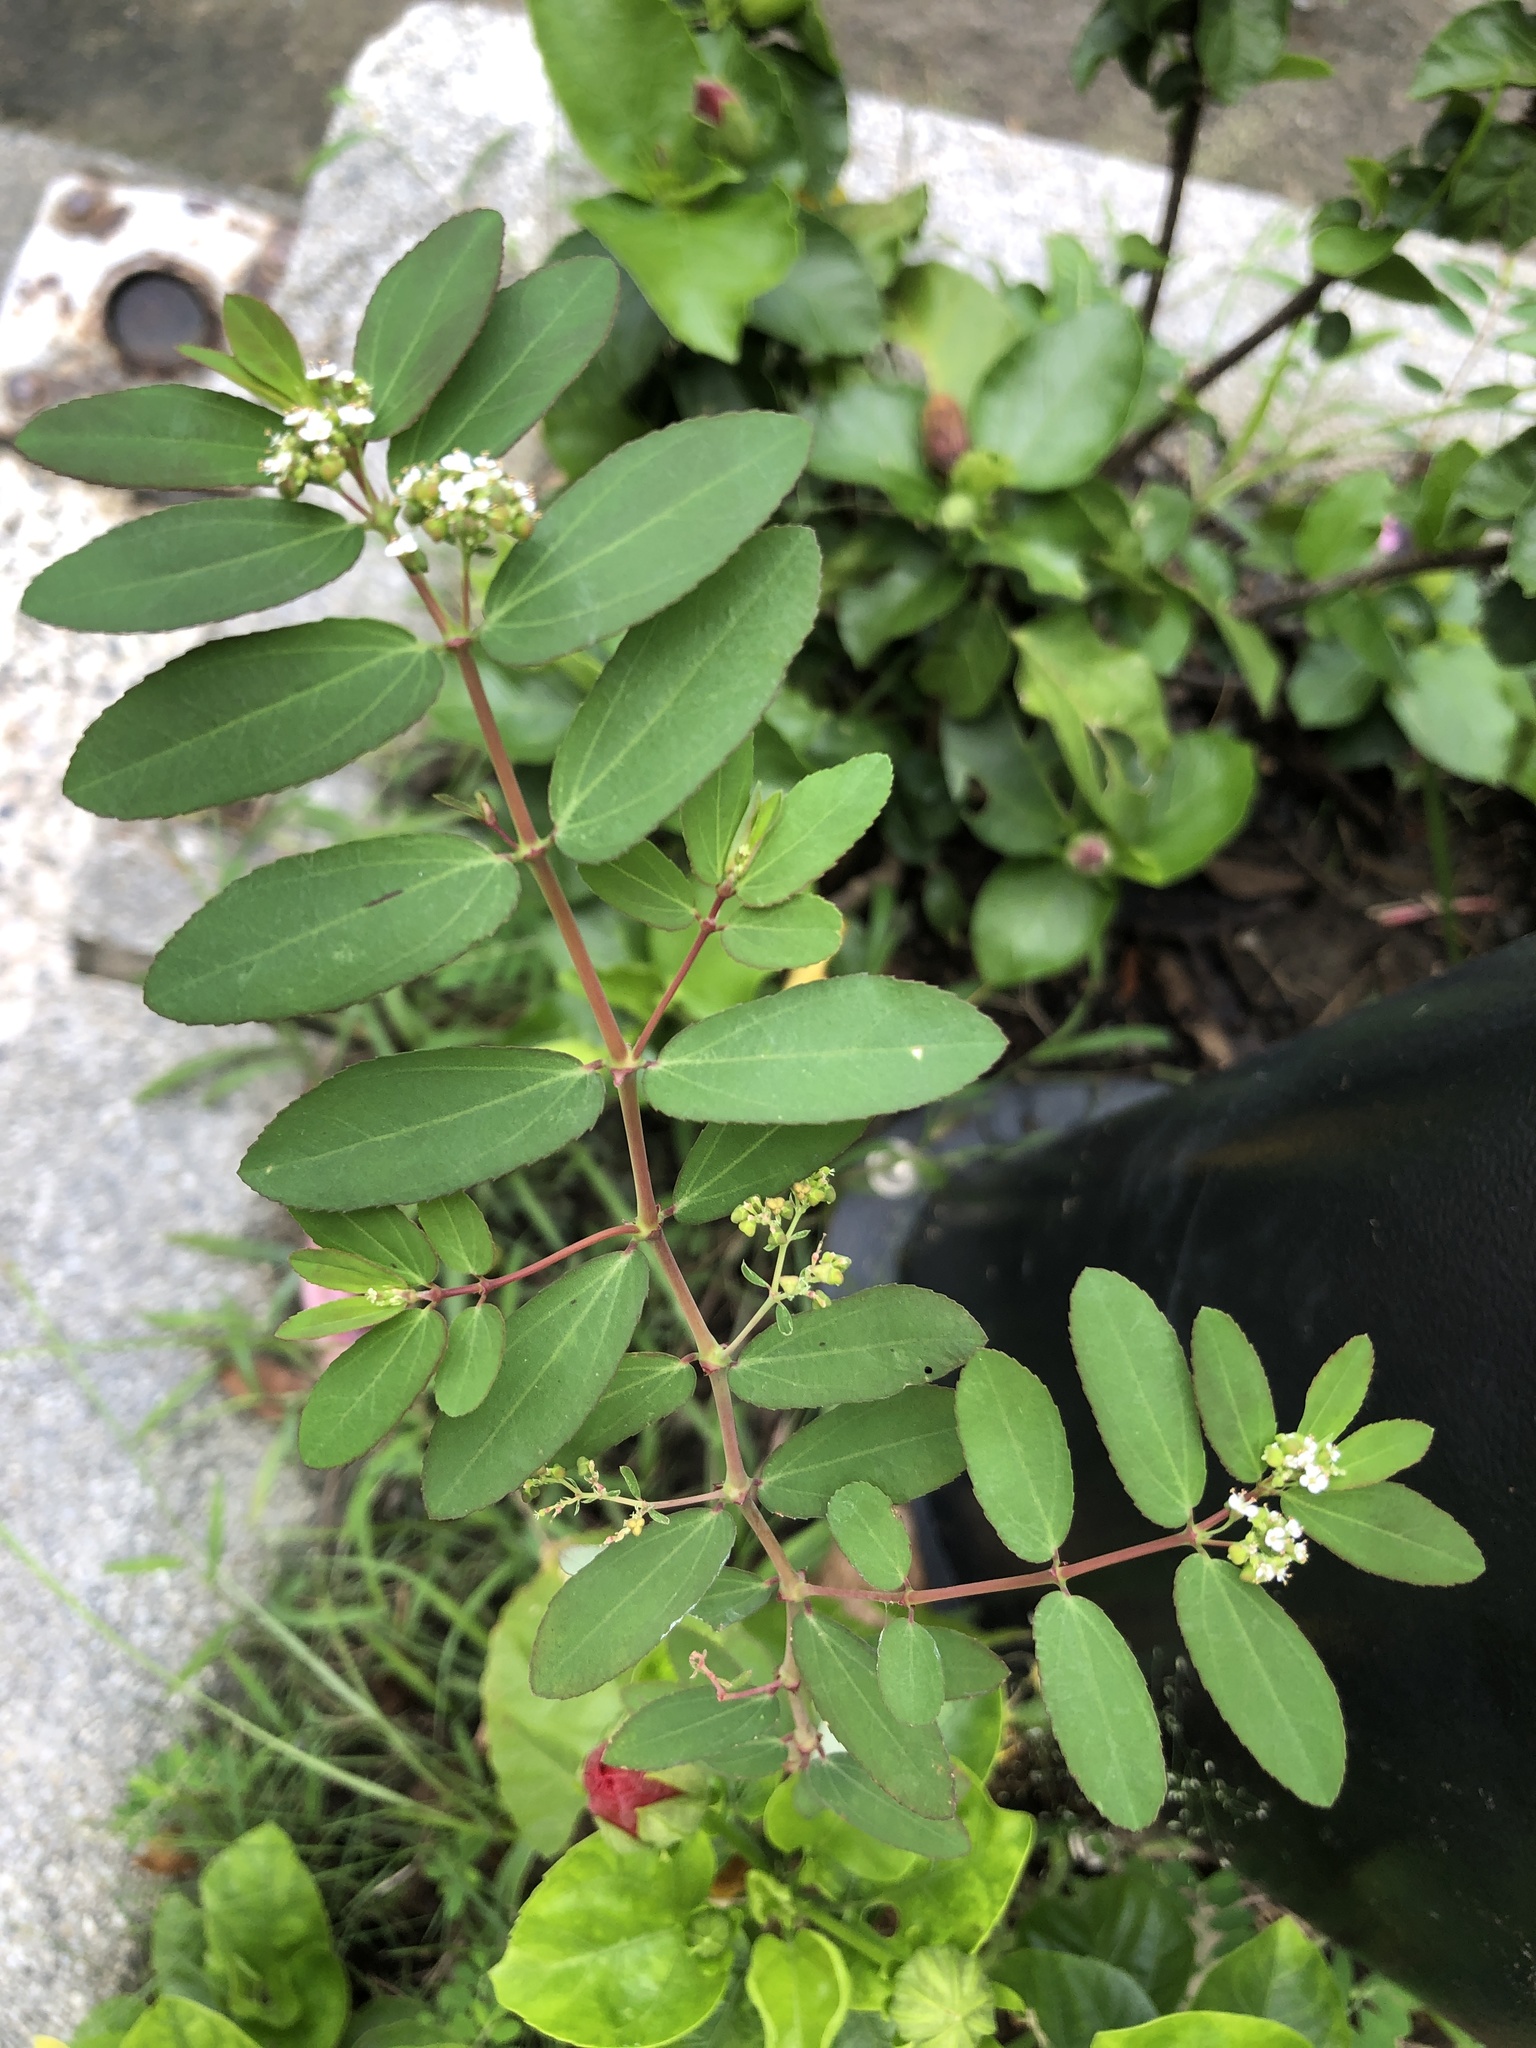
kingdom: Plantae
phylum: Tracheophyta
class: Magnoliopsida
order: Malpighiales
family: Euphorbiaceae
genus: Euphorbia
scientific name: Euphorbia hypericifolia
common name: Graceful sandmat
